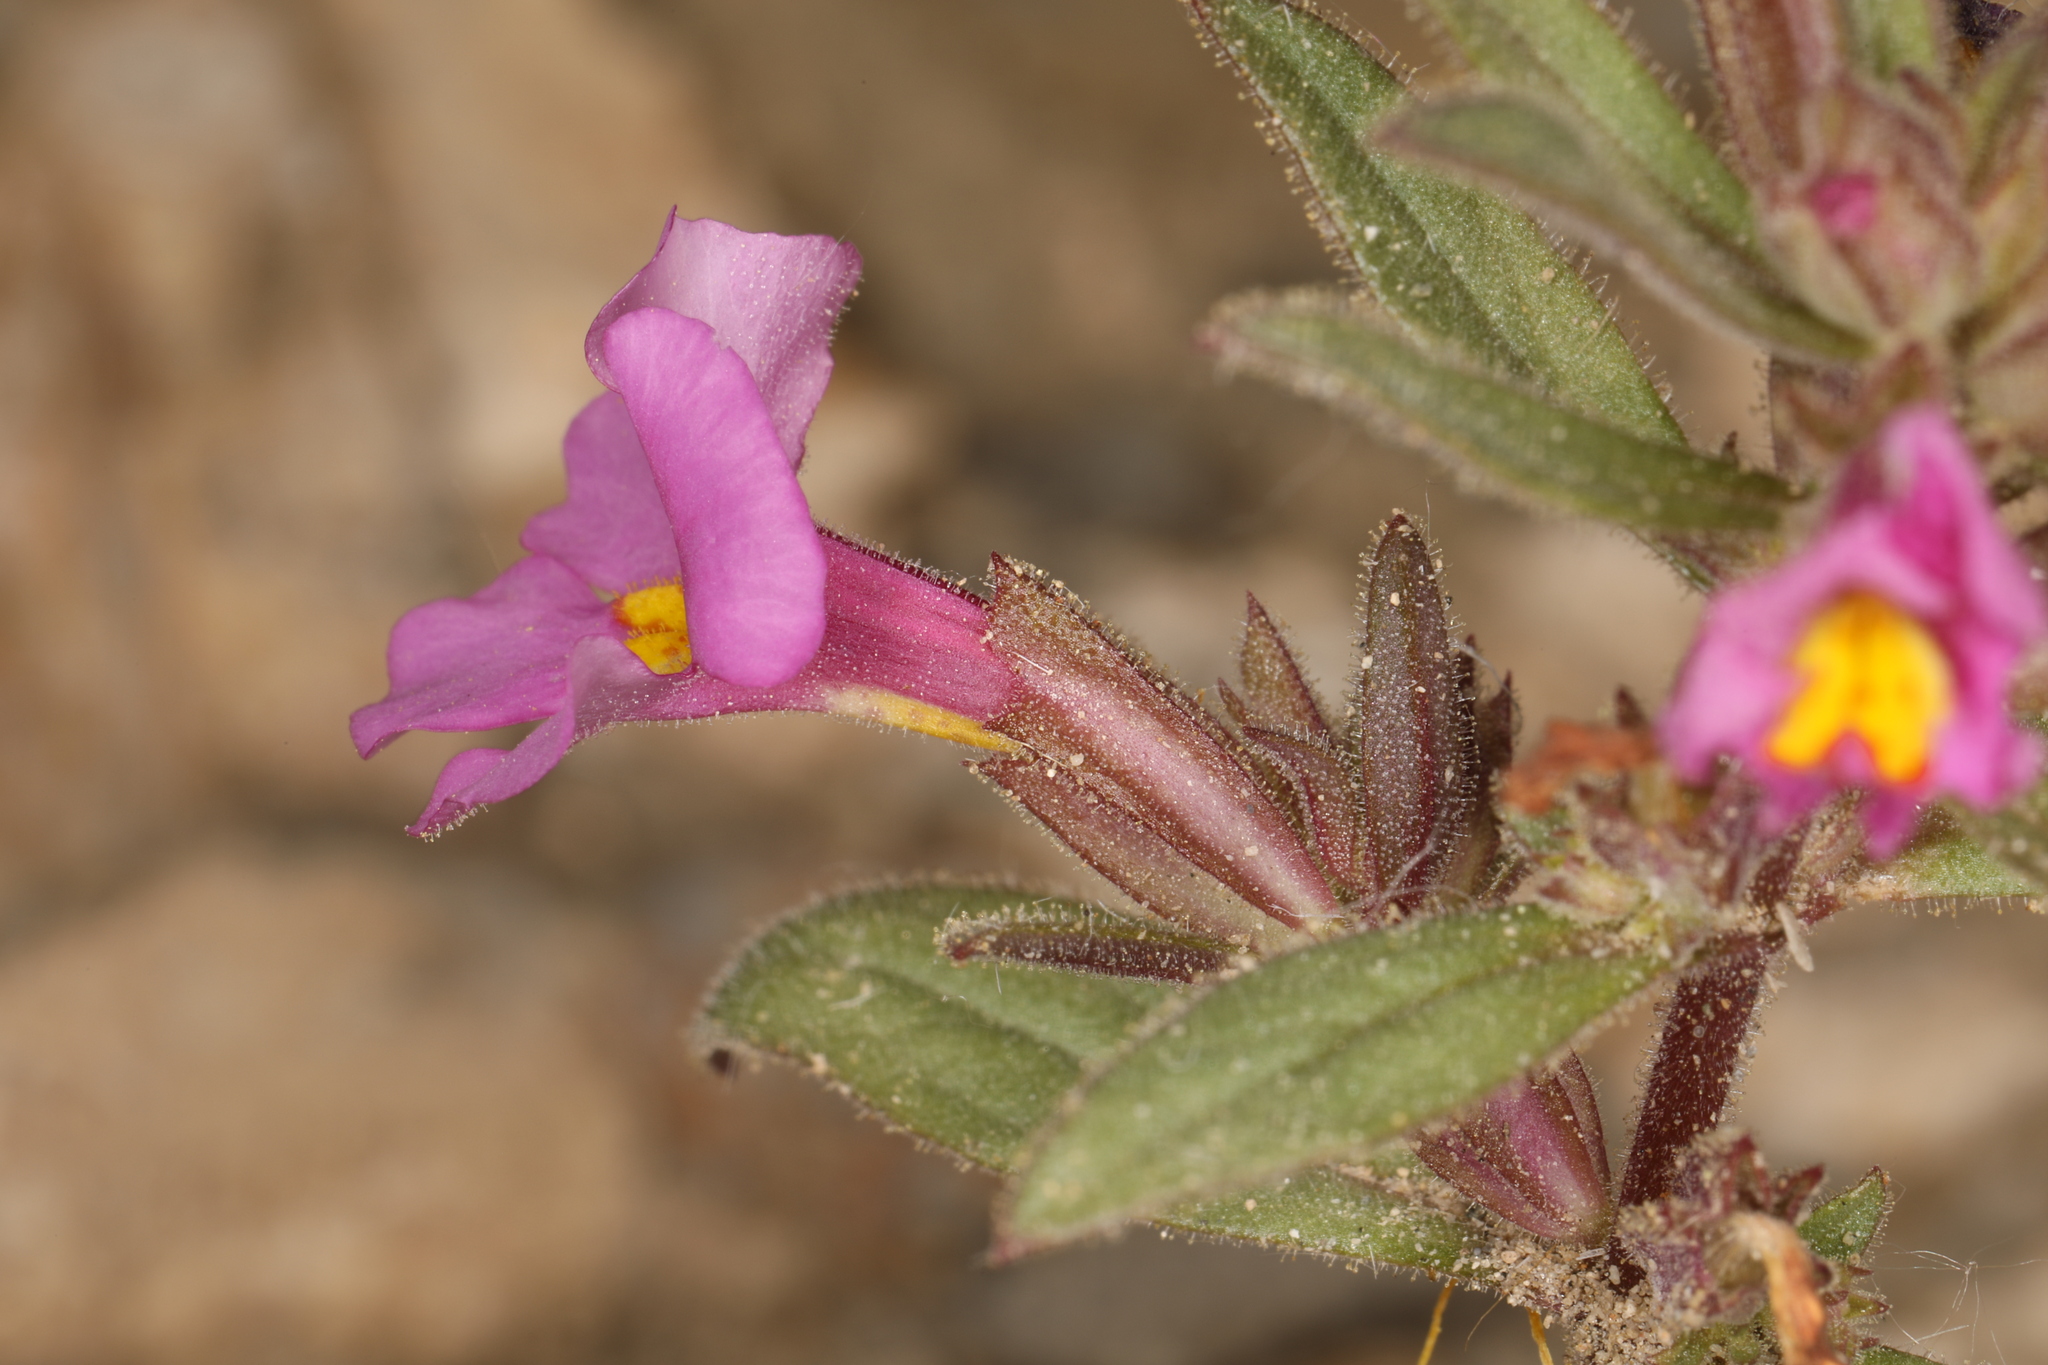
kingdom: Plantae
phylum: Tracheophyta
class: Magnoliopsida
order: Lamiales
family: Phrymaceae
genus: Diplacus
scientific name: Diplacus parryi
